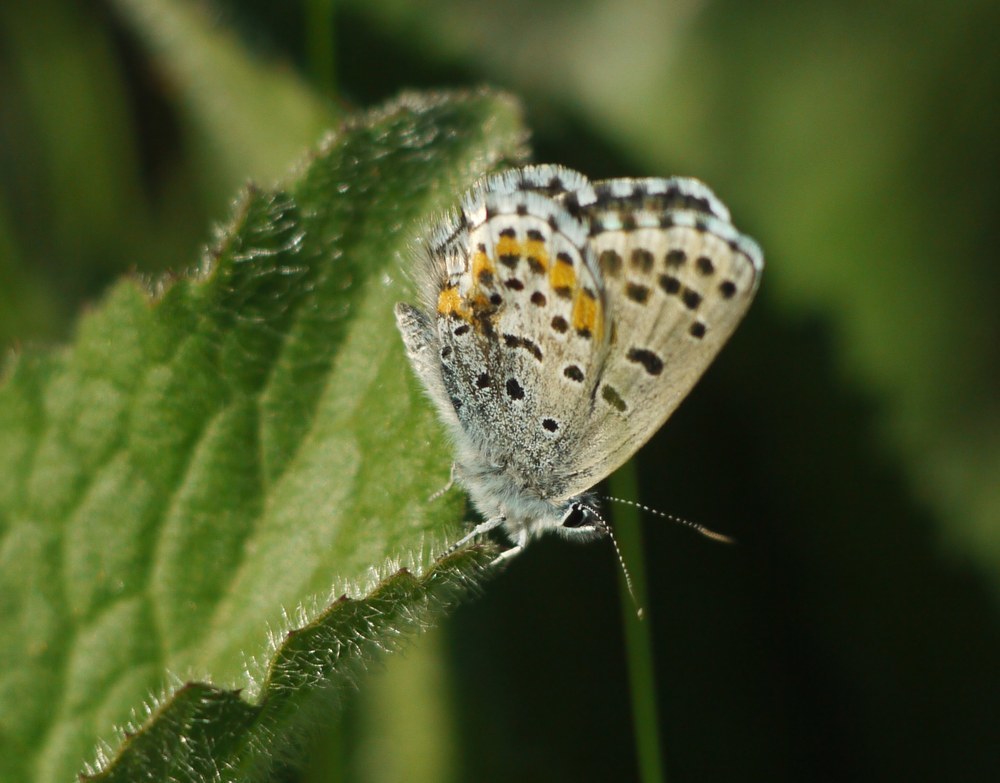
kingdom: Animalia
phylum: Arthropoda
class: Insecta
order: Lepidoptera
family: Lycaenidae
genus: Pseudophilotes
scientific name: Pseudophilotes bavius
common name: Bavius blue
